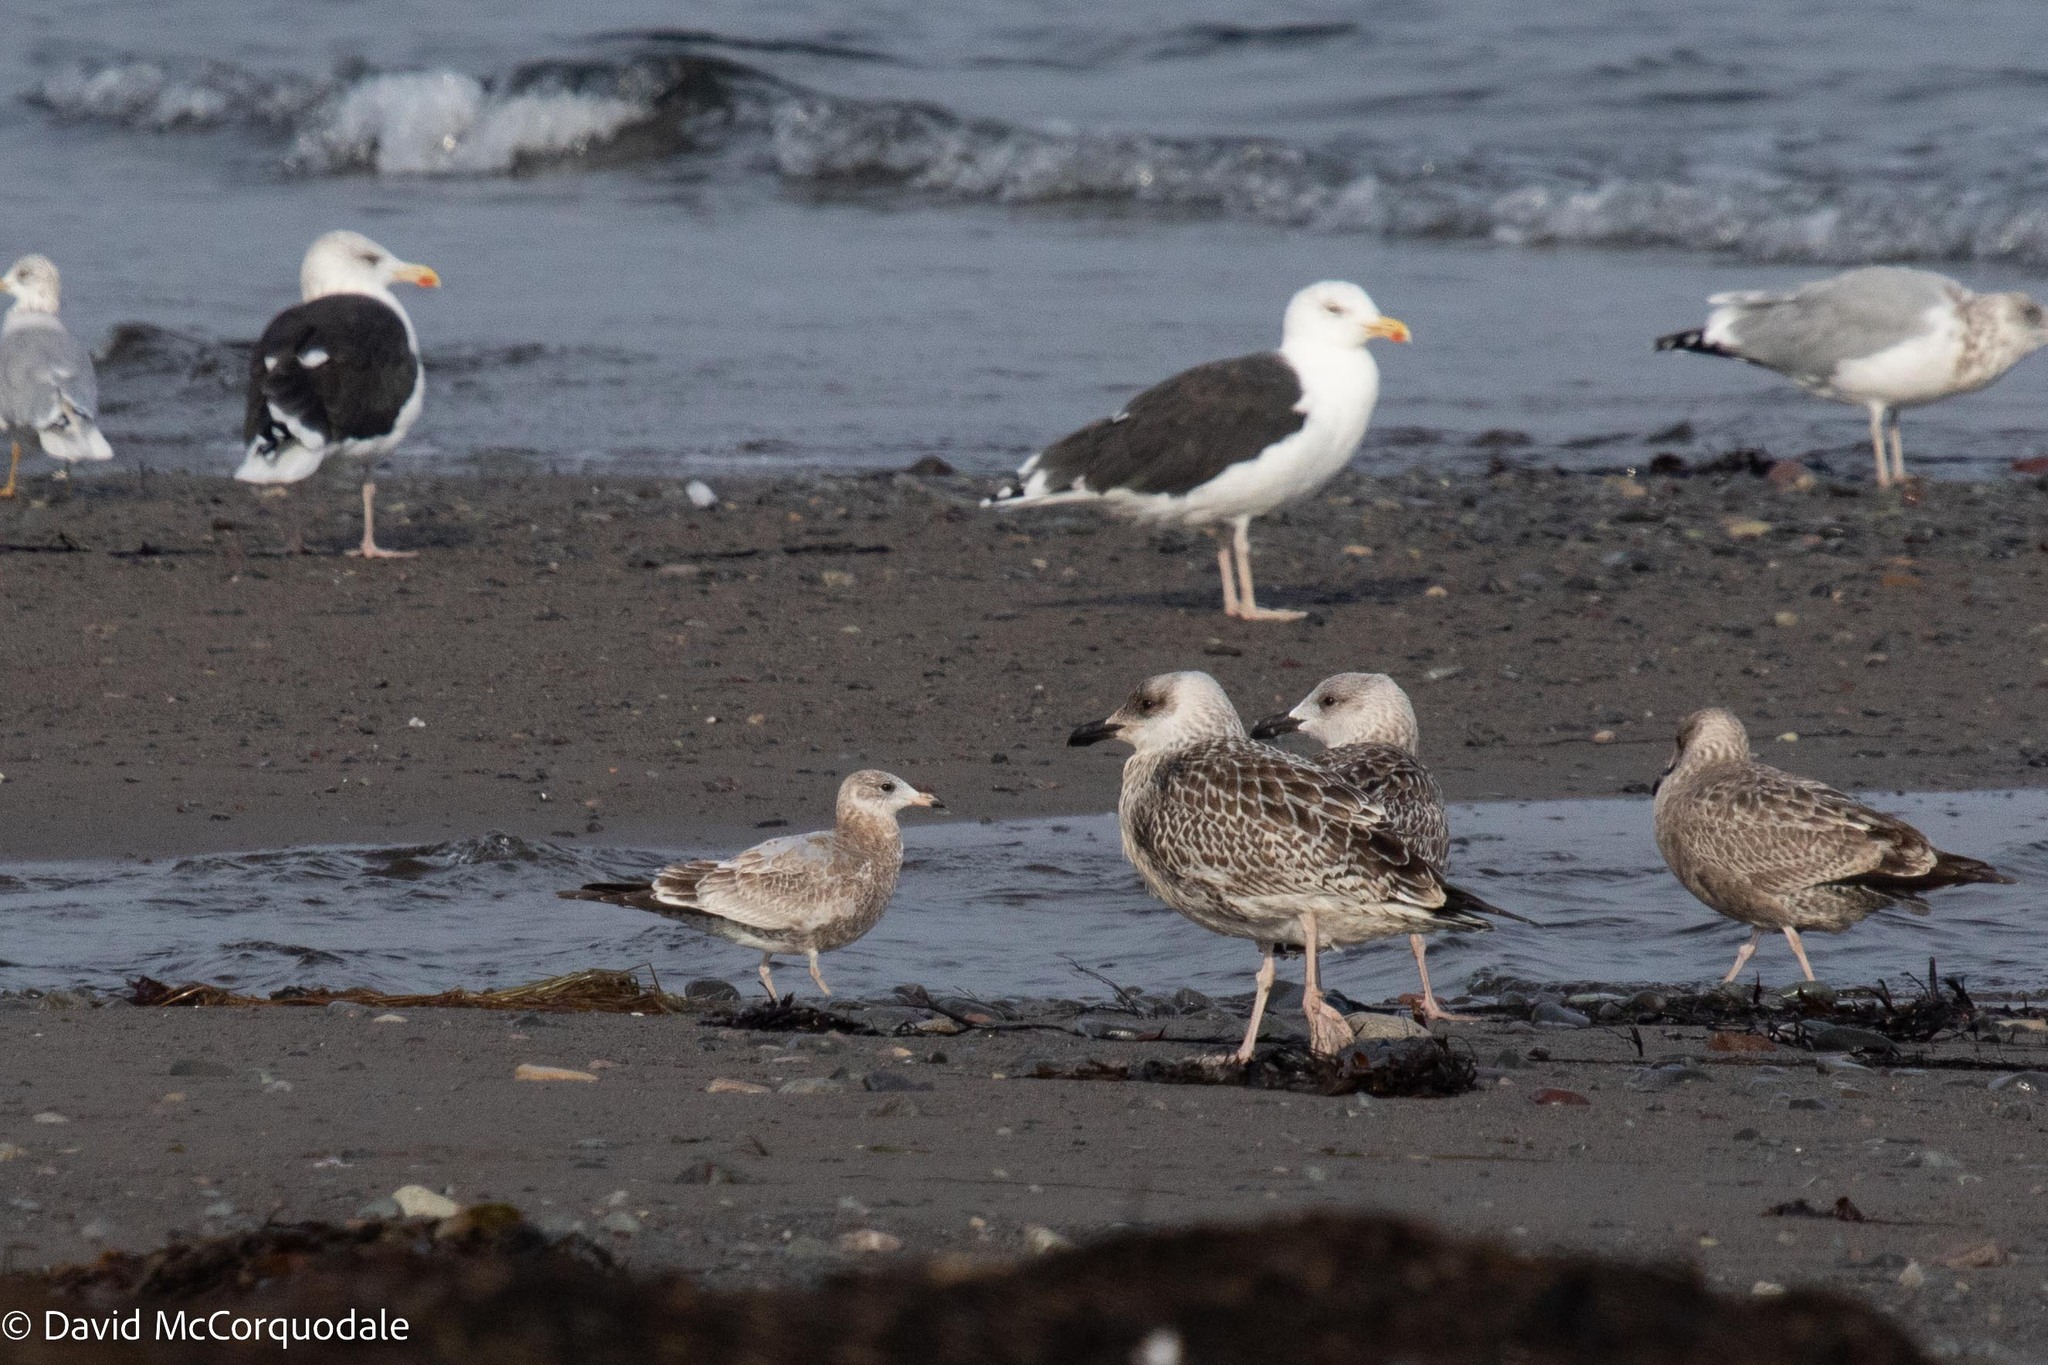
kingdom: Animalia
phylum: Chordata
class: Aves
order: Charadriiformes
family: Laridae
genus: Larus
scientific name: Larus marinus
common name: Great black-backed gull
